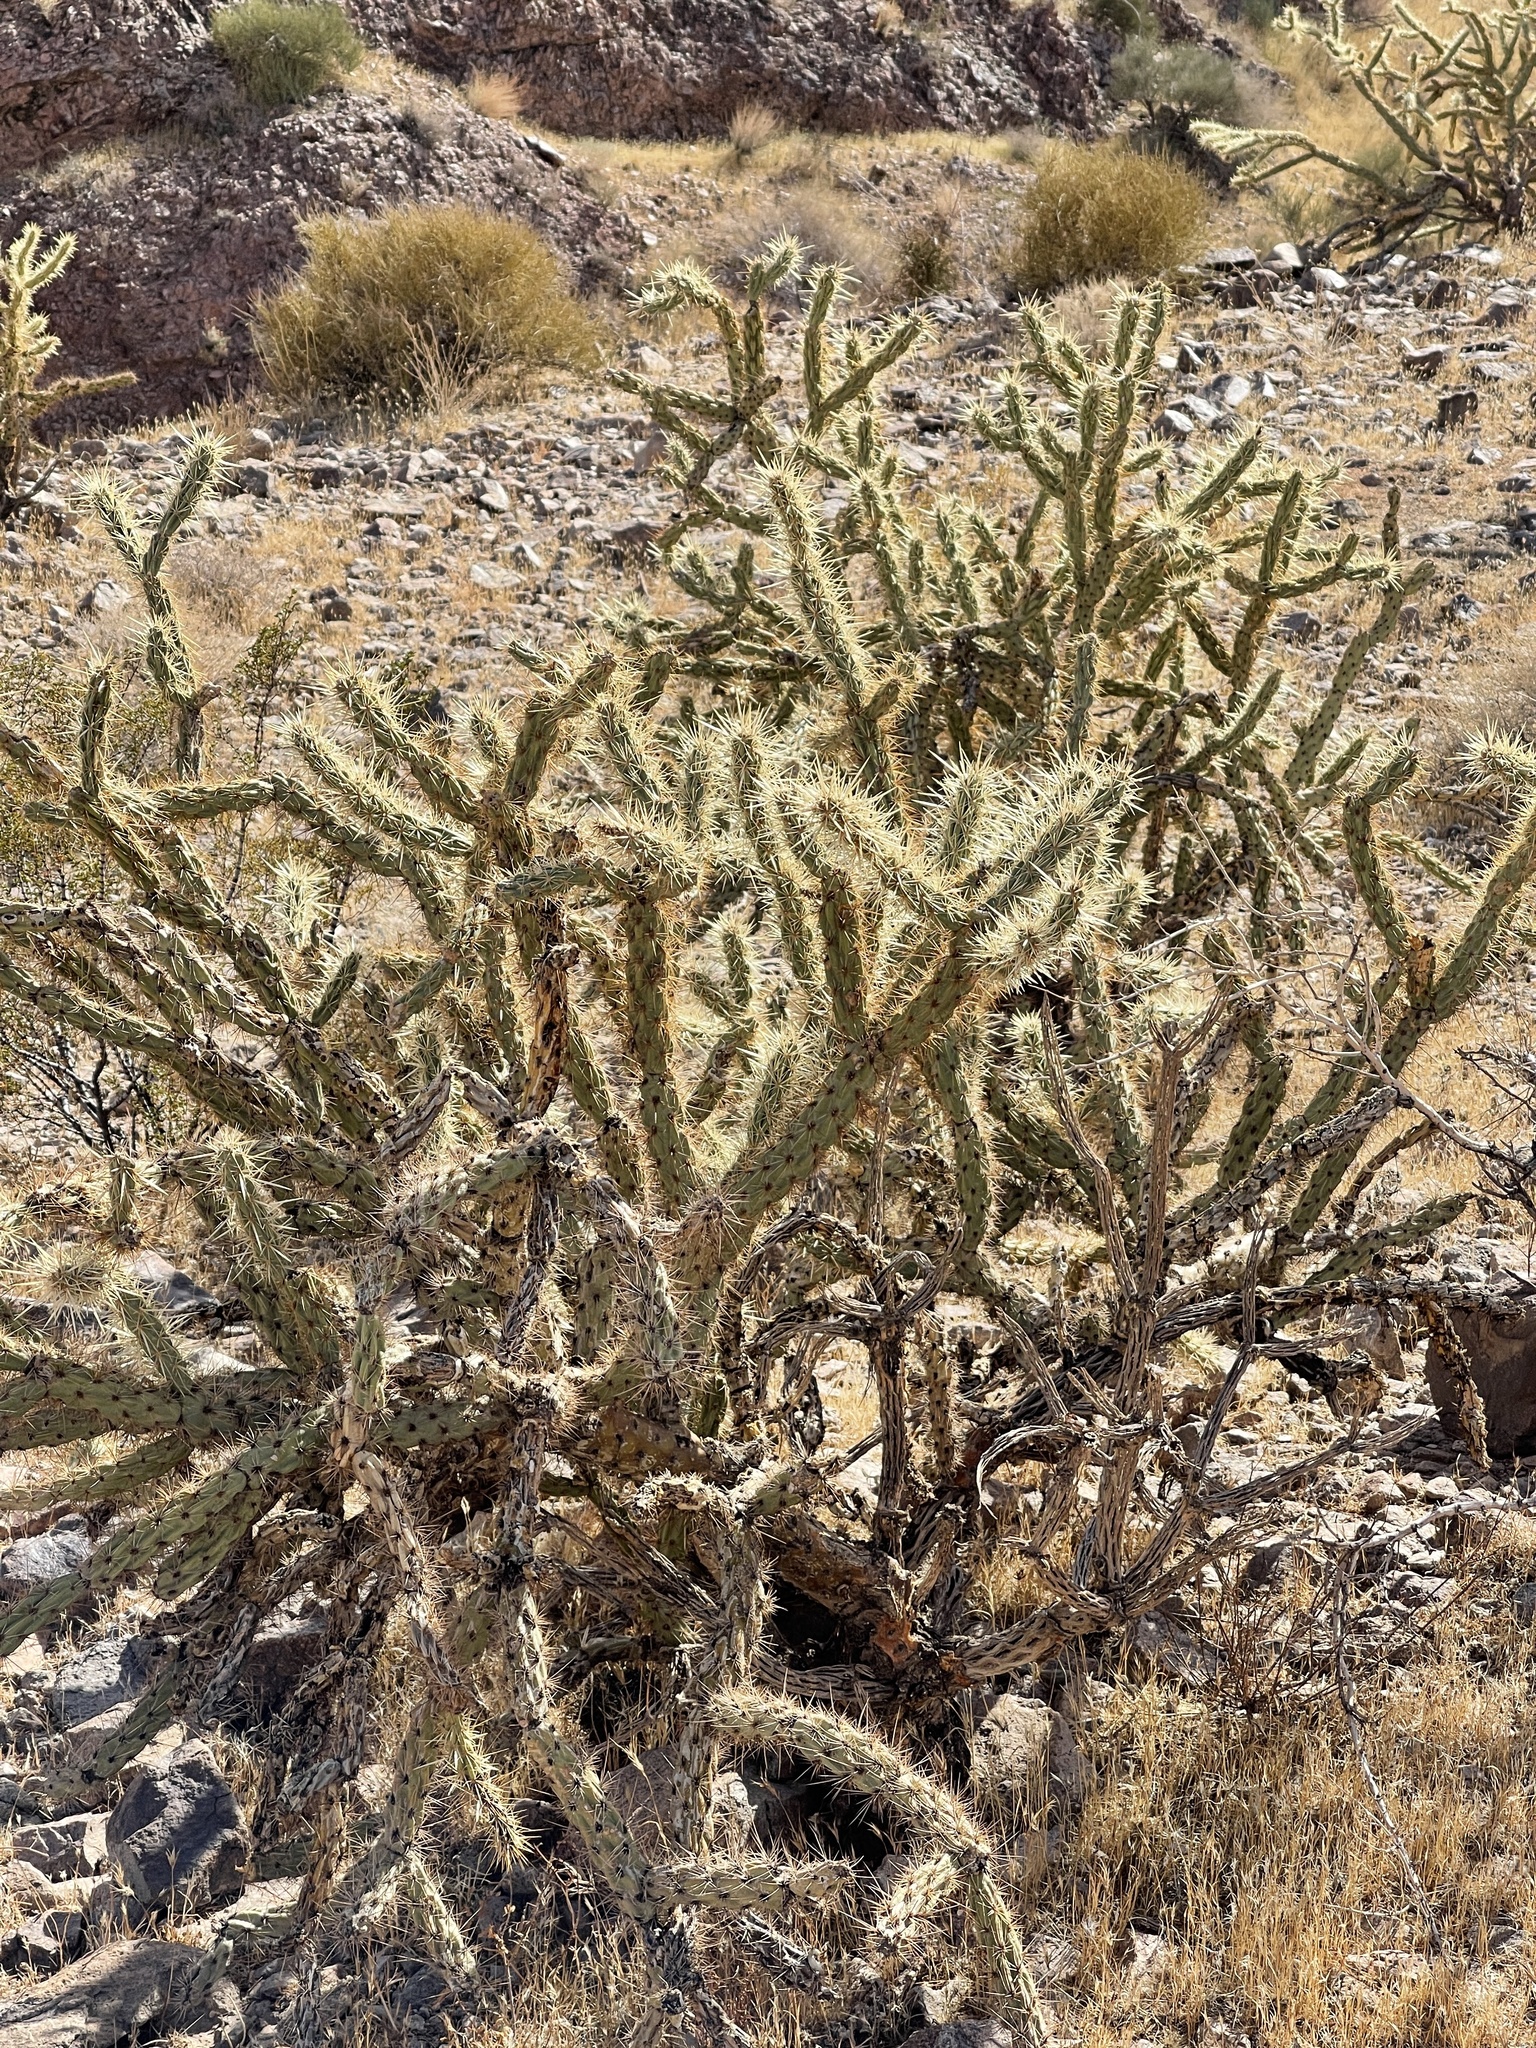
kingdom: Plantae
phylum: Tracheophyta
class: Magnoliopsida
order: Caryophyllales
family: Cactaceae
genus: Cylindropuntia
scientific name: Cylindropuntia acanthocarpa
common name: Buckhorn cholla
